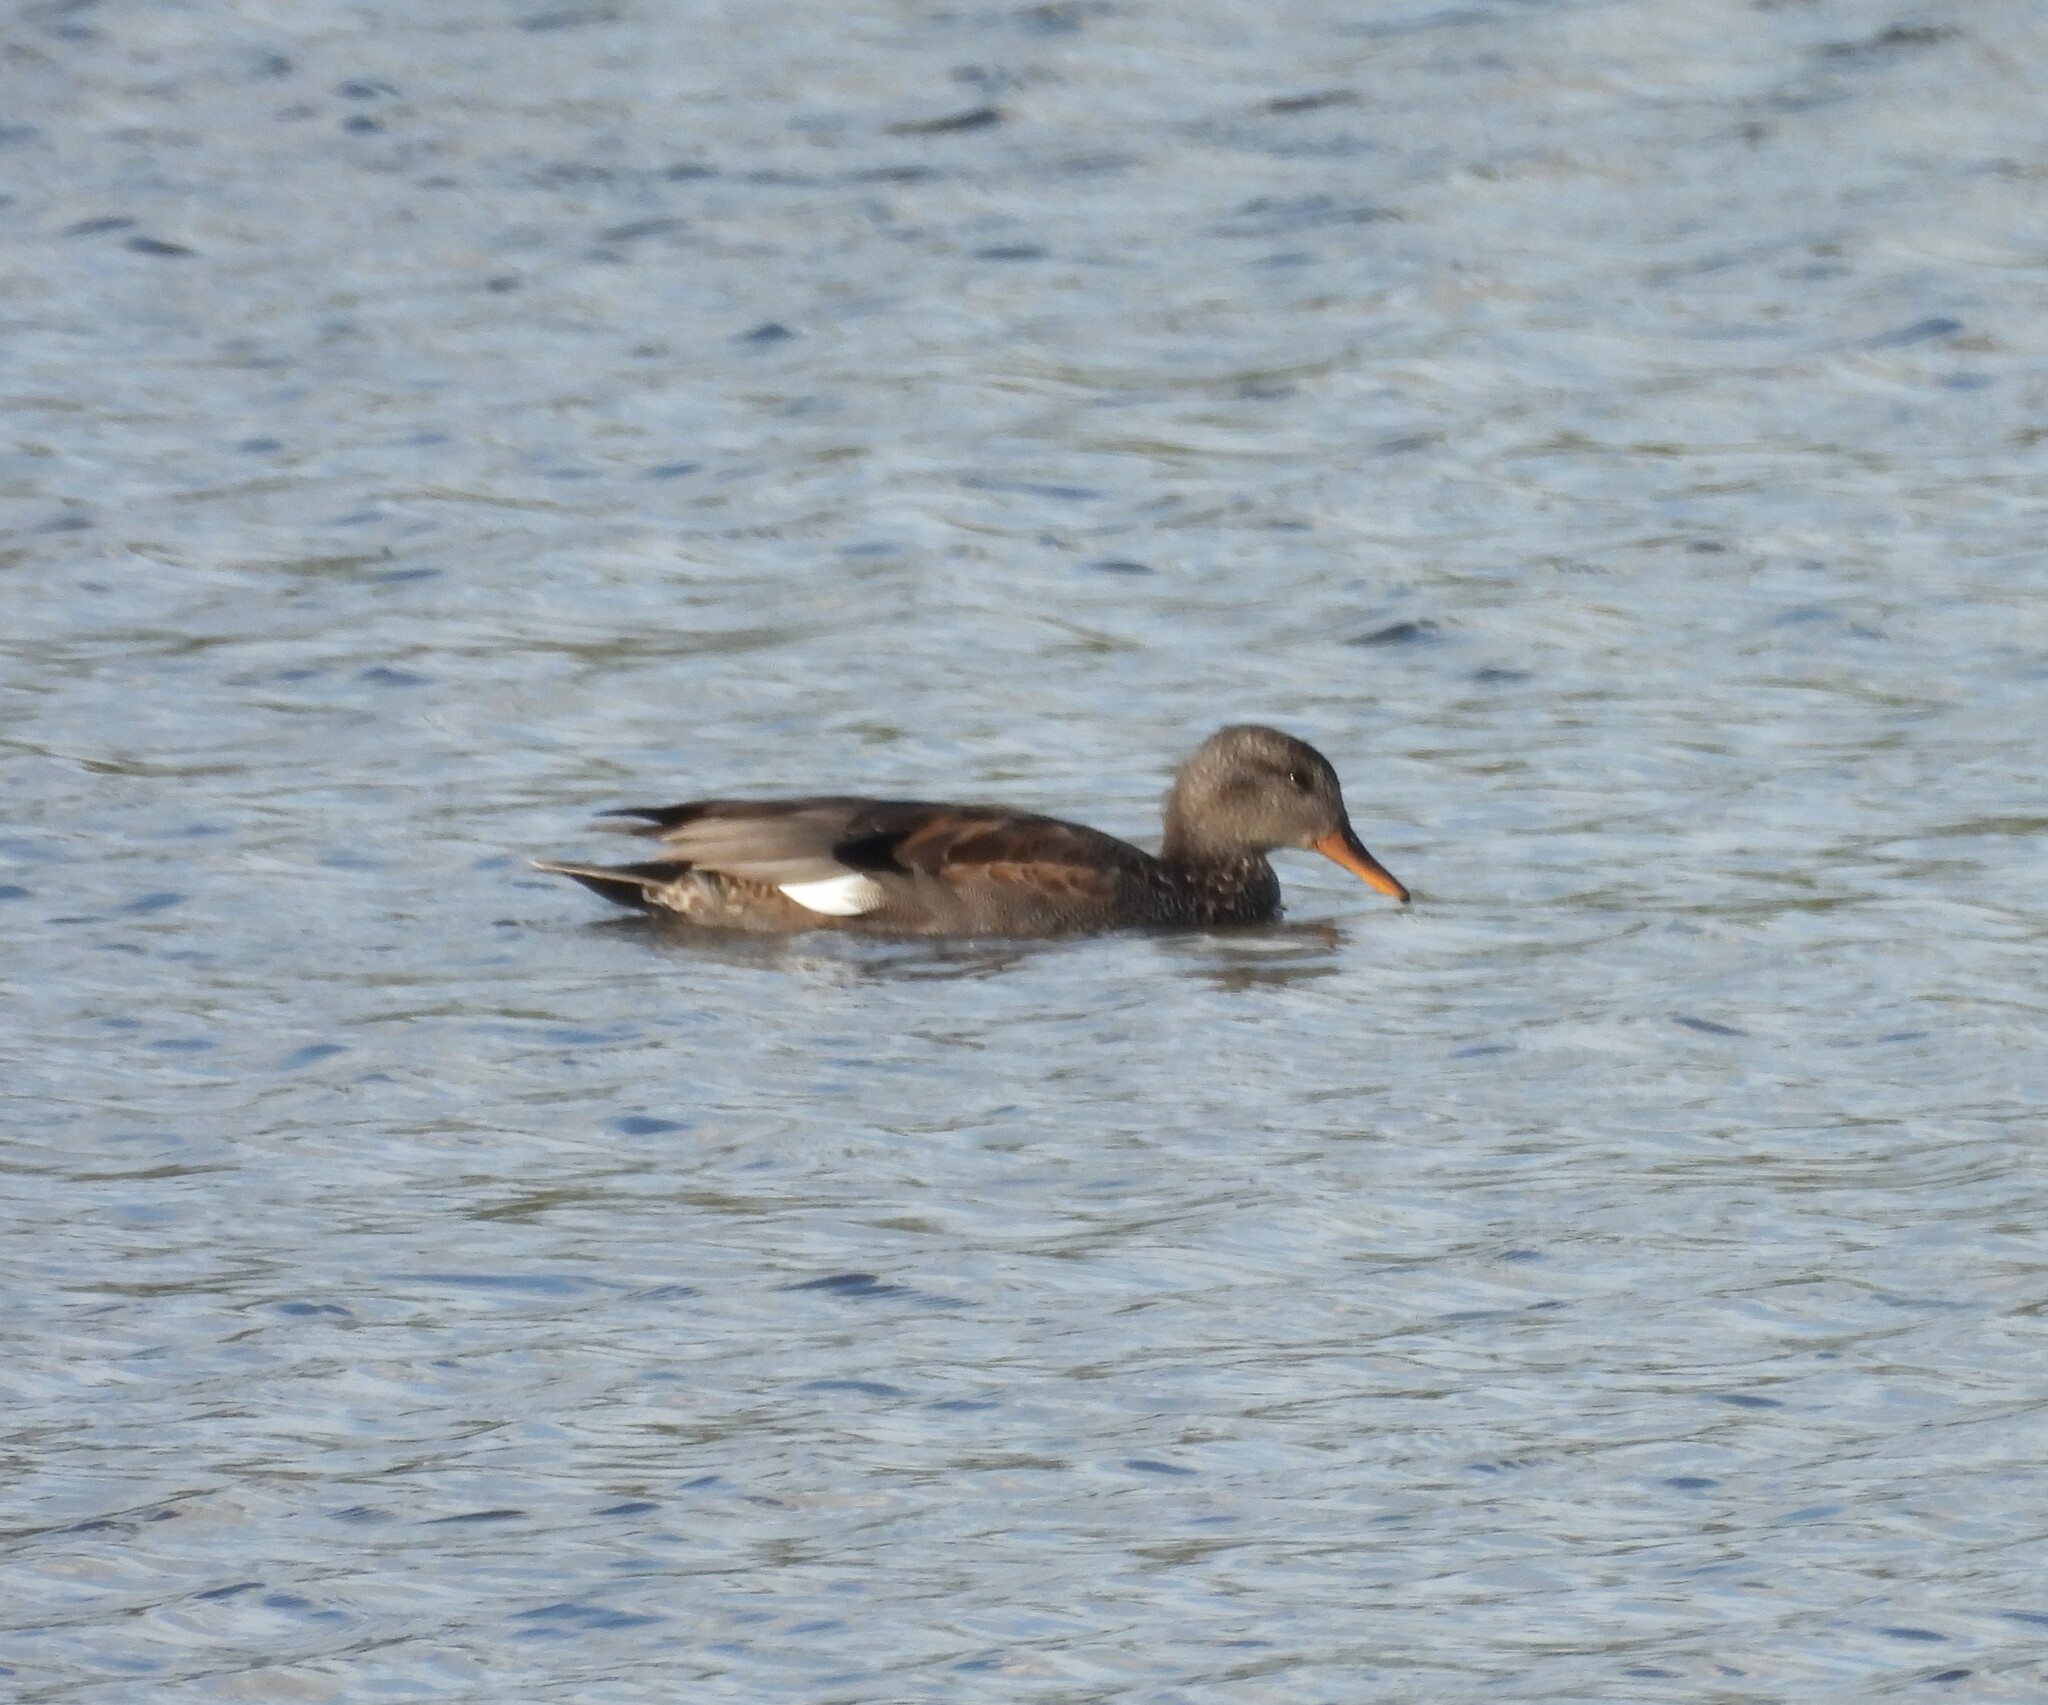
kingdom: Animalia
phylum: Chordata
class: Aves
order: Anseriformes
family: Anatidae
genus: Mareca
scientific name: Mareca strepera
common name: Gadwall
